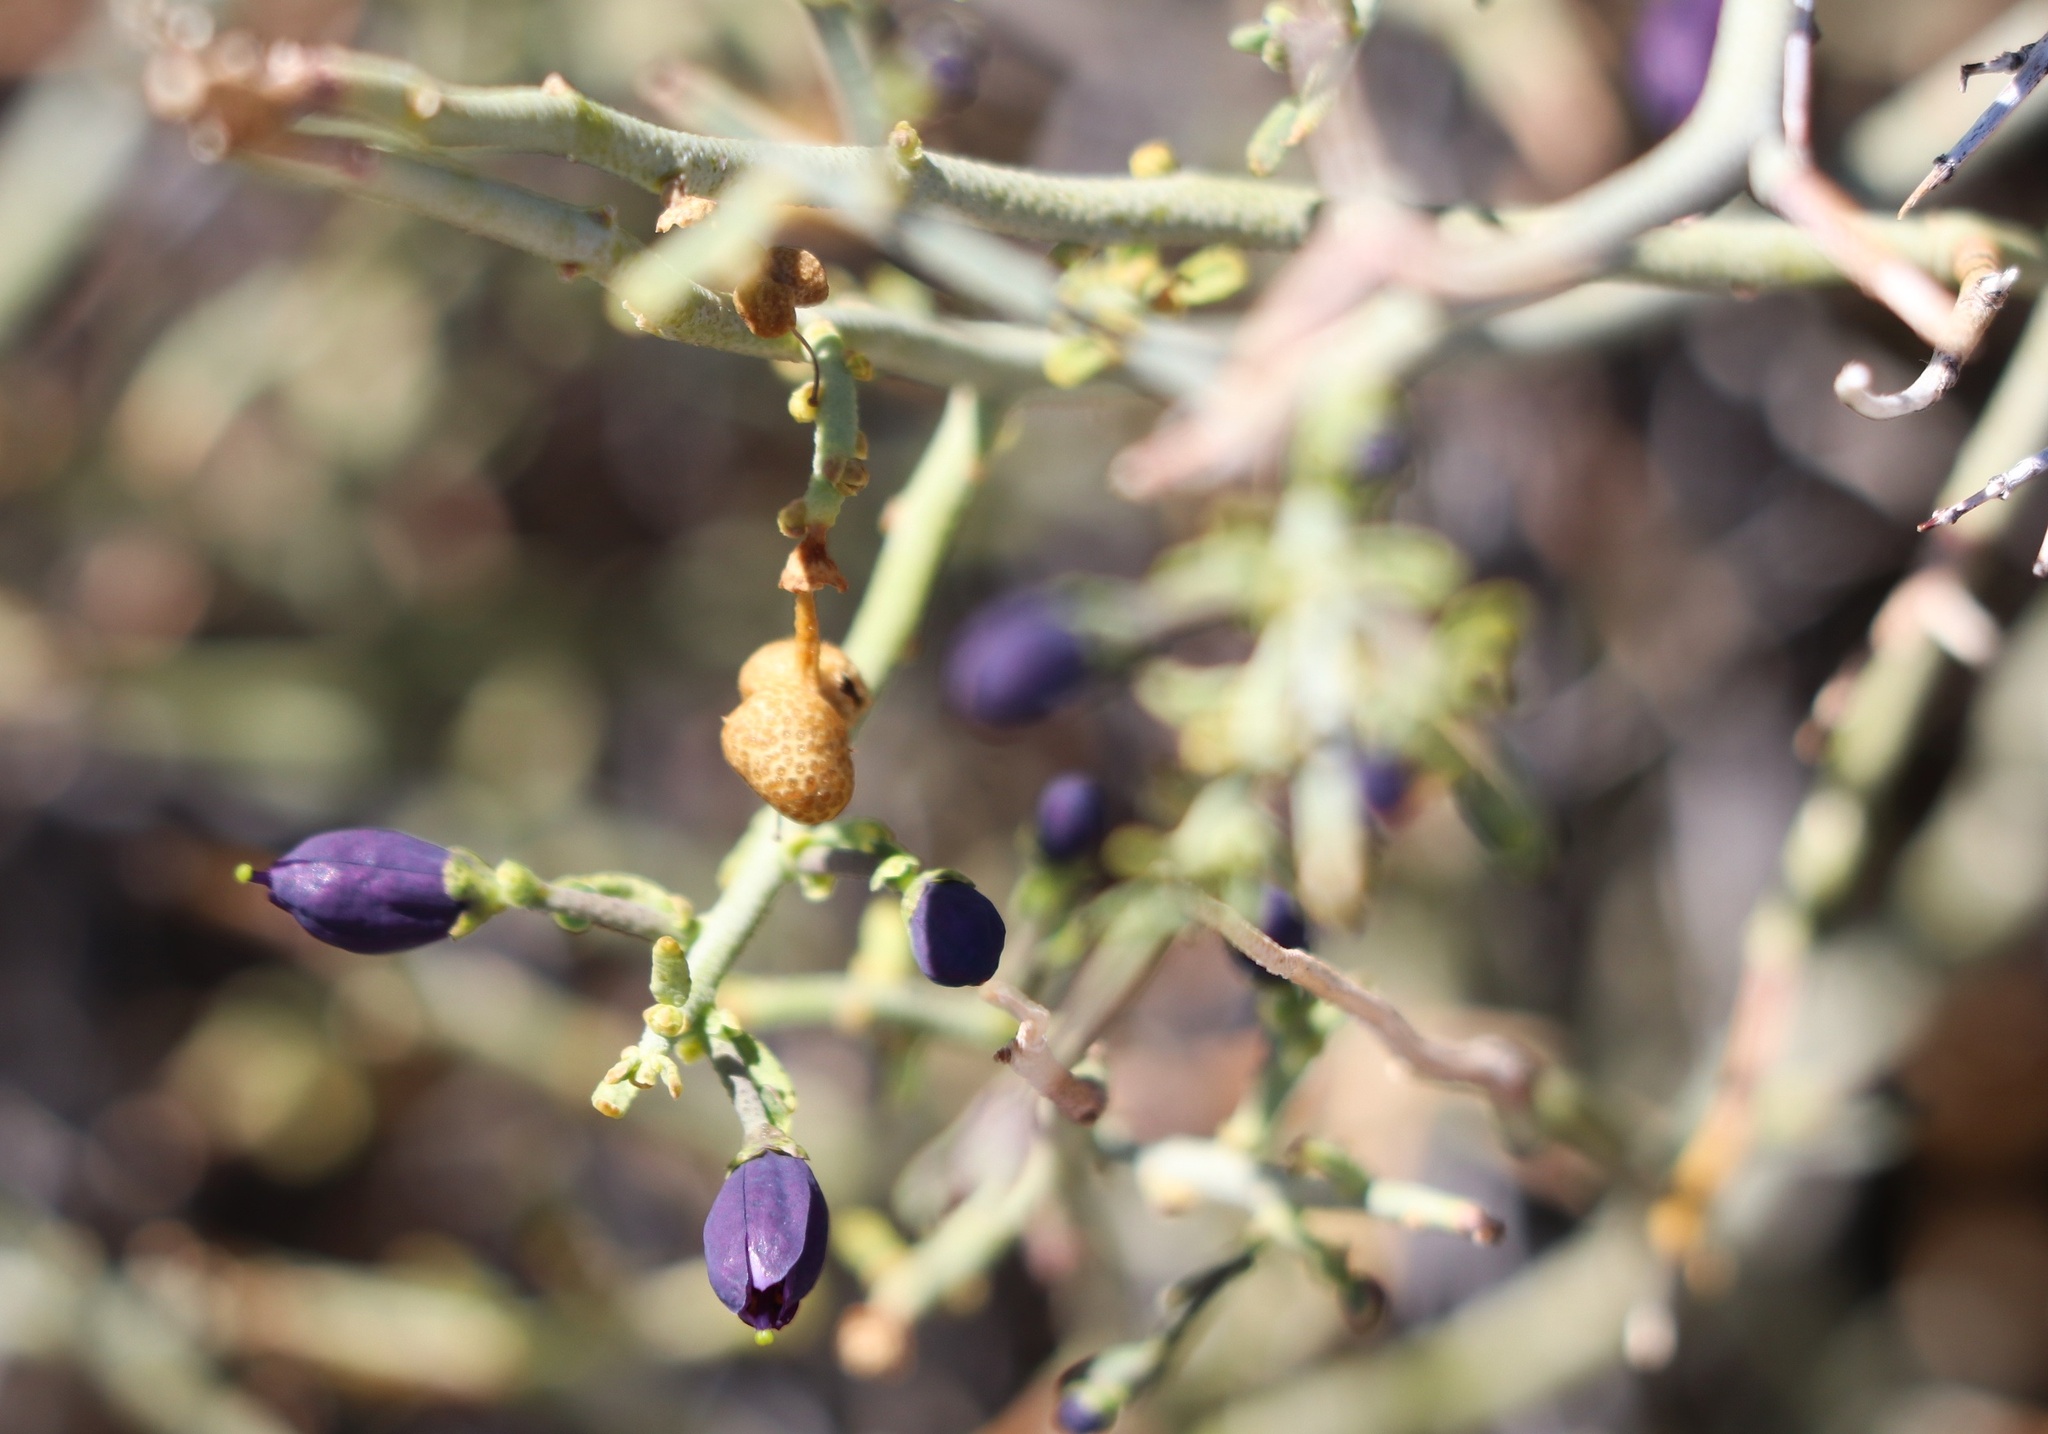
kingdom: Plantae
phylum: Tracheophyta
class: Magnoliopsida
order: Sapindales
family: Rutaceae
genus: Thamnosma
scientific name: Thamnosma montana
